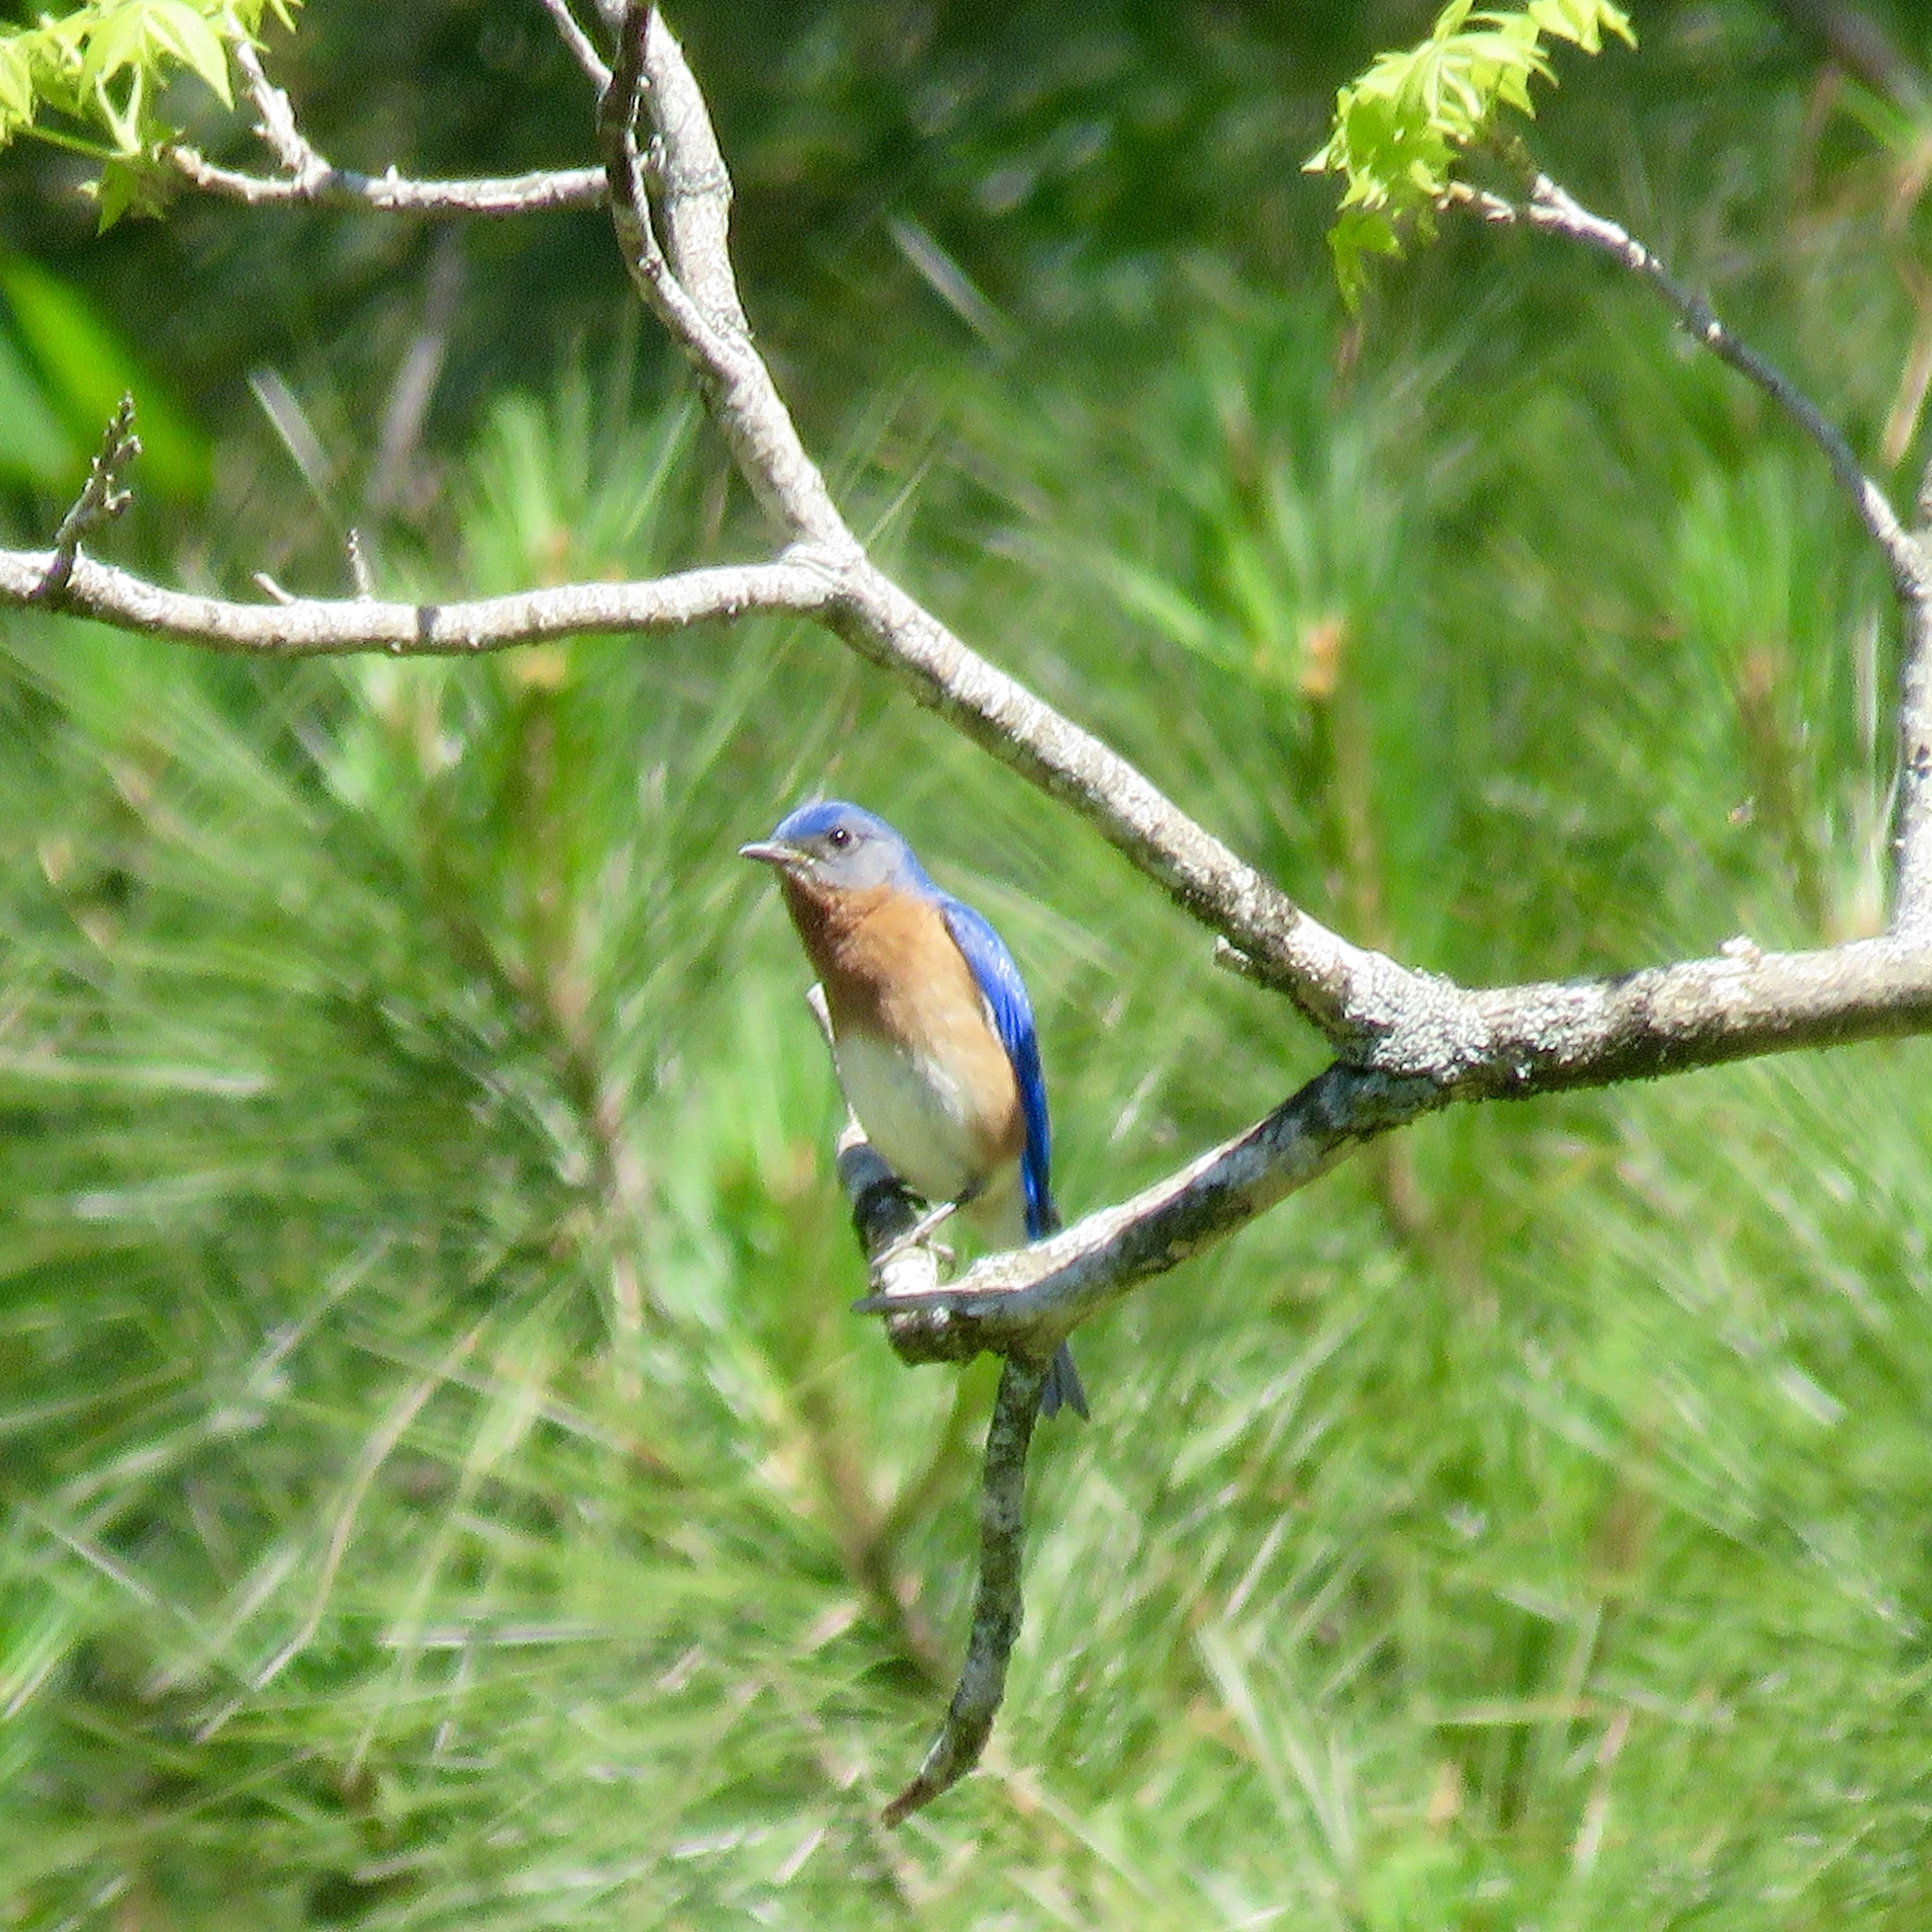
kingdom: Animalia
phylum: Chordata
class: Aves
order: Passeriformes
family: Turdidae
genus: Sialia
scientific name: Sialia sialis
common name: Eastern bluebird
